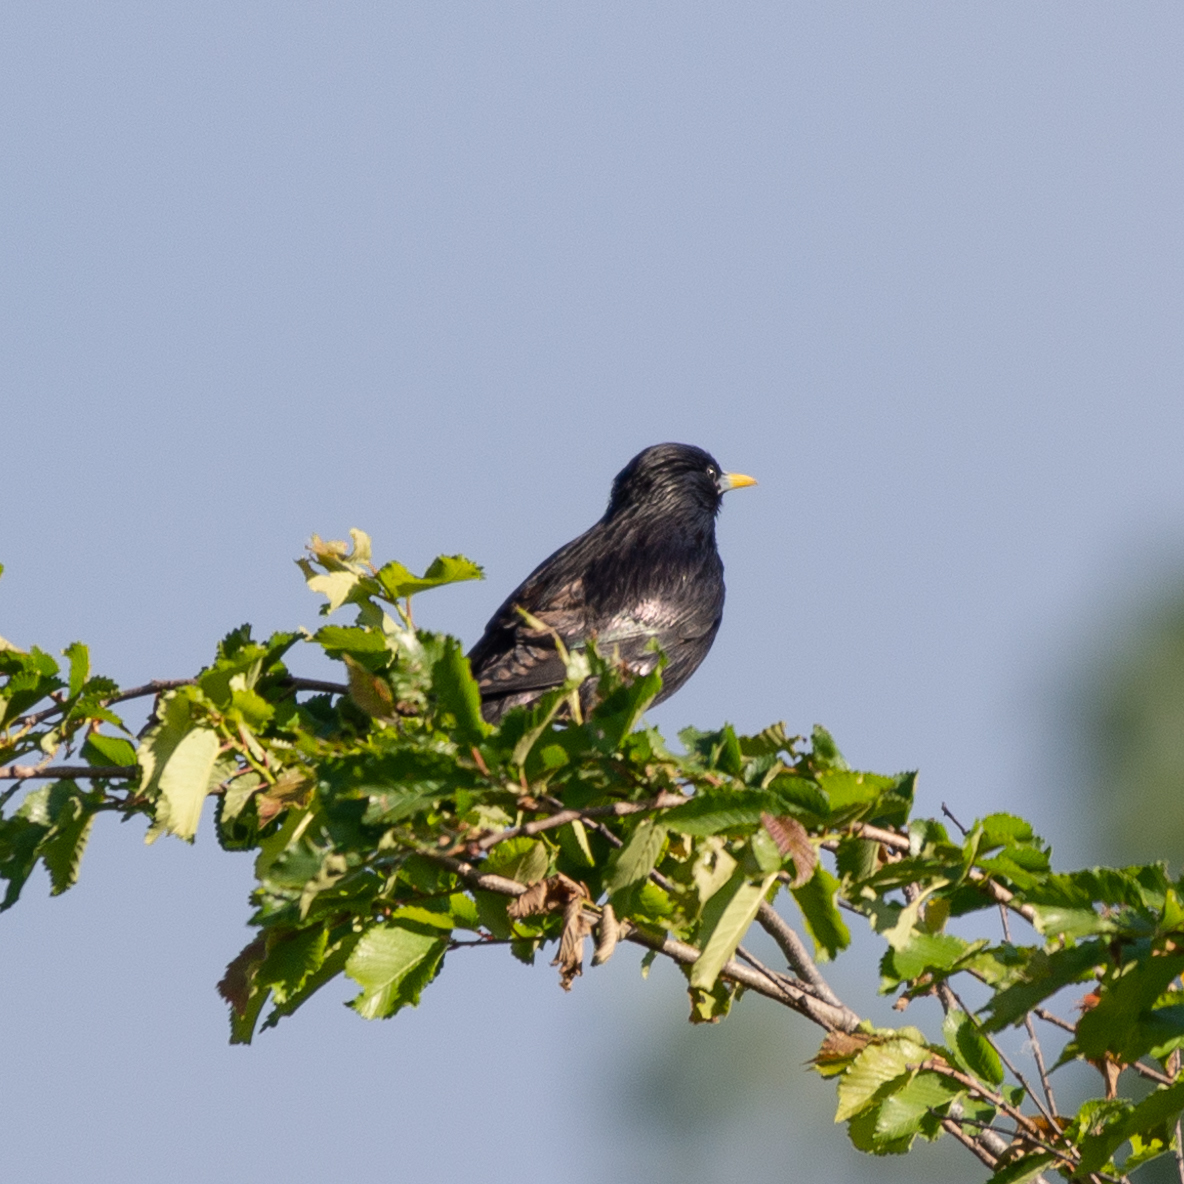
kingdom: Animalia
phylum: Chordata
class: Aves
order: Passeriformes
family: Sturnidae
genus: Sturnus
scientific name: Sturnus unicolor
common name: Spotless starling
